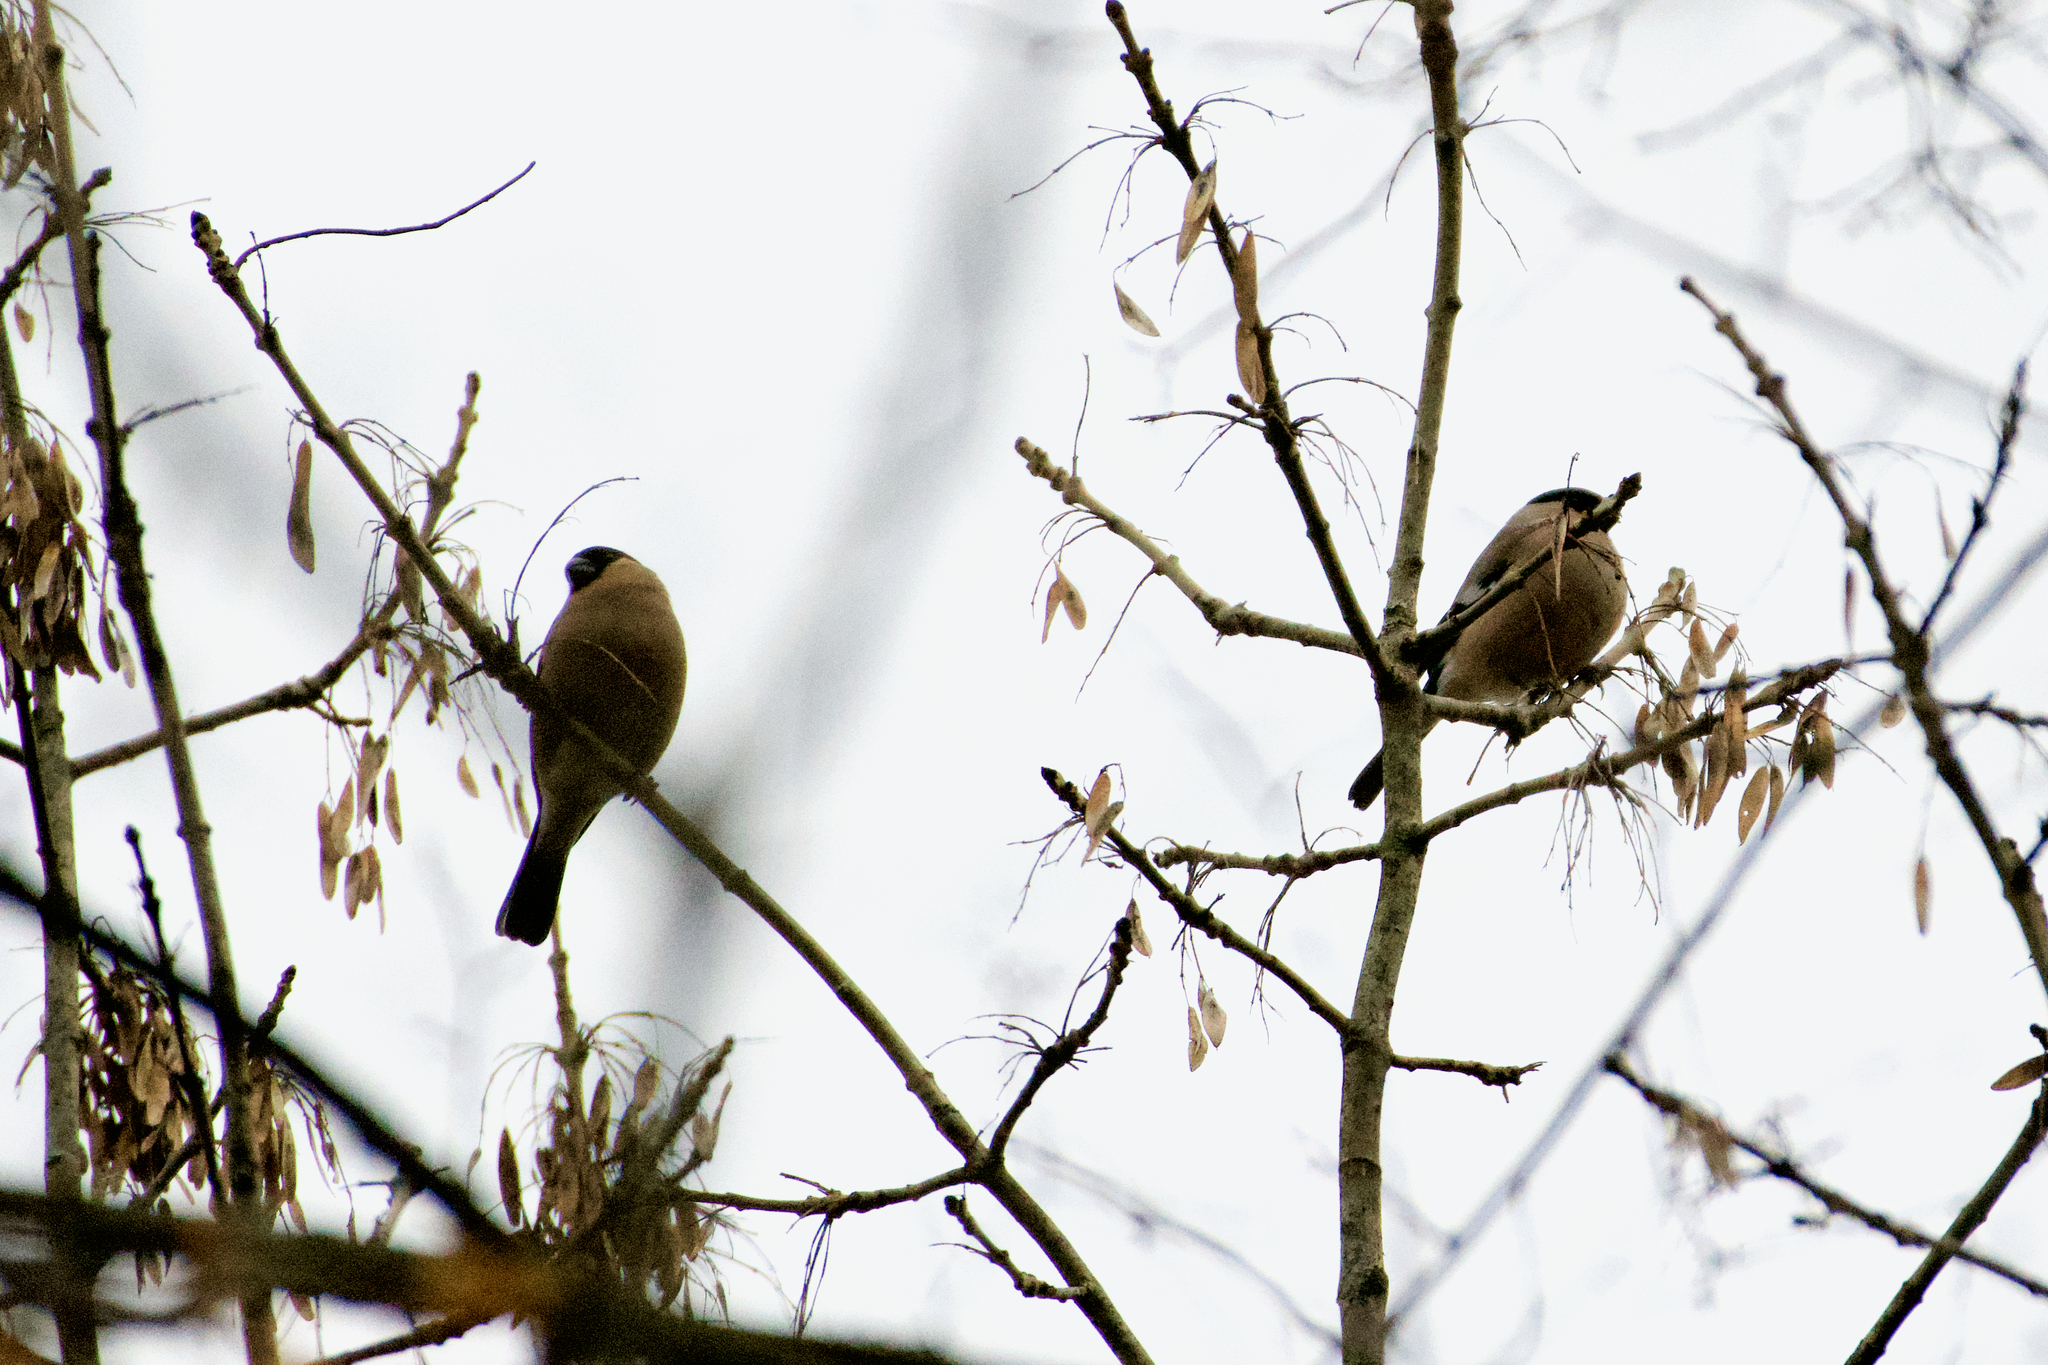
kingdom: Animalia
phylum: Chordata
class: Aves
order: Passeriformes
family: Fringillidae
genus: Pyrrhula
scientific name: Pyrrhula pyrrhula
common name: Eurasian bullfinch
